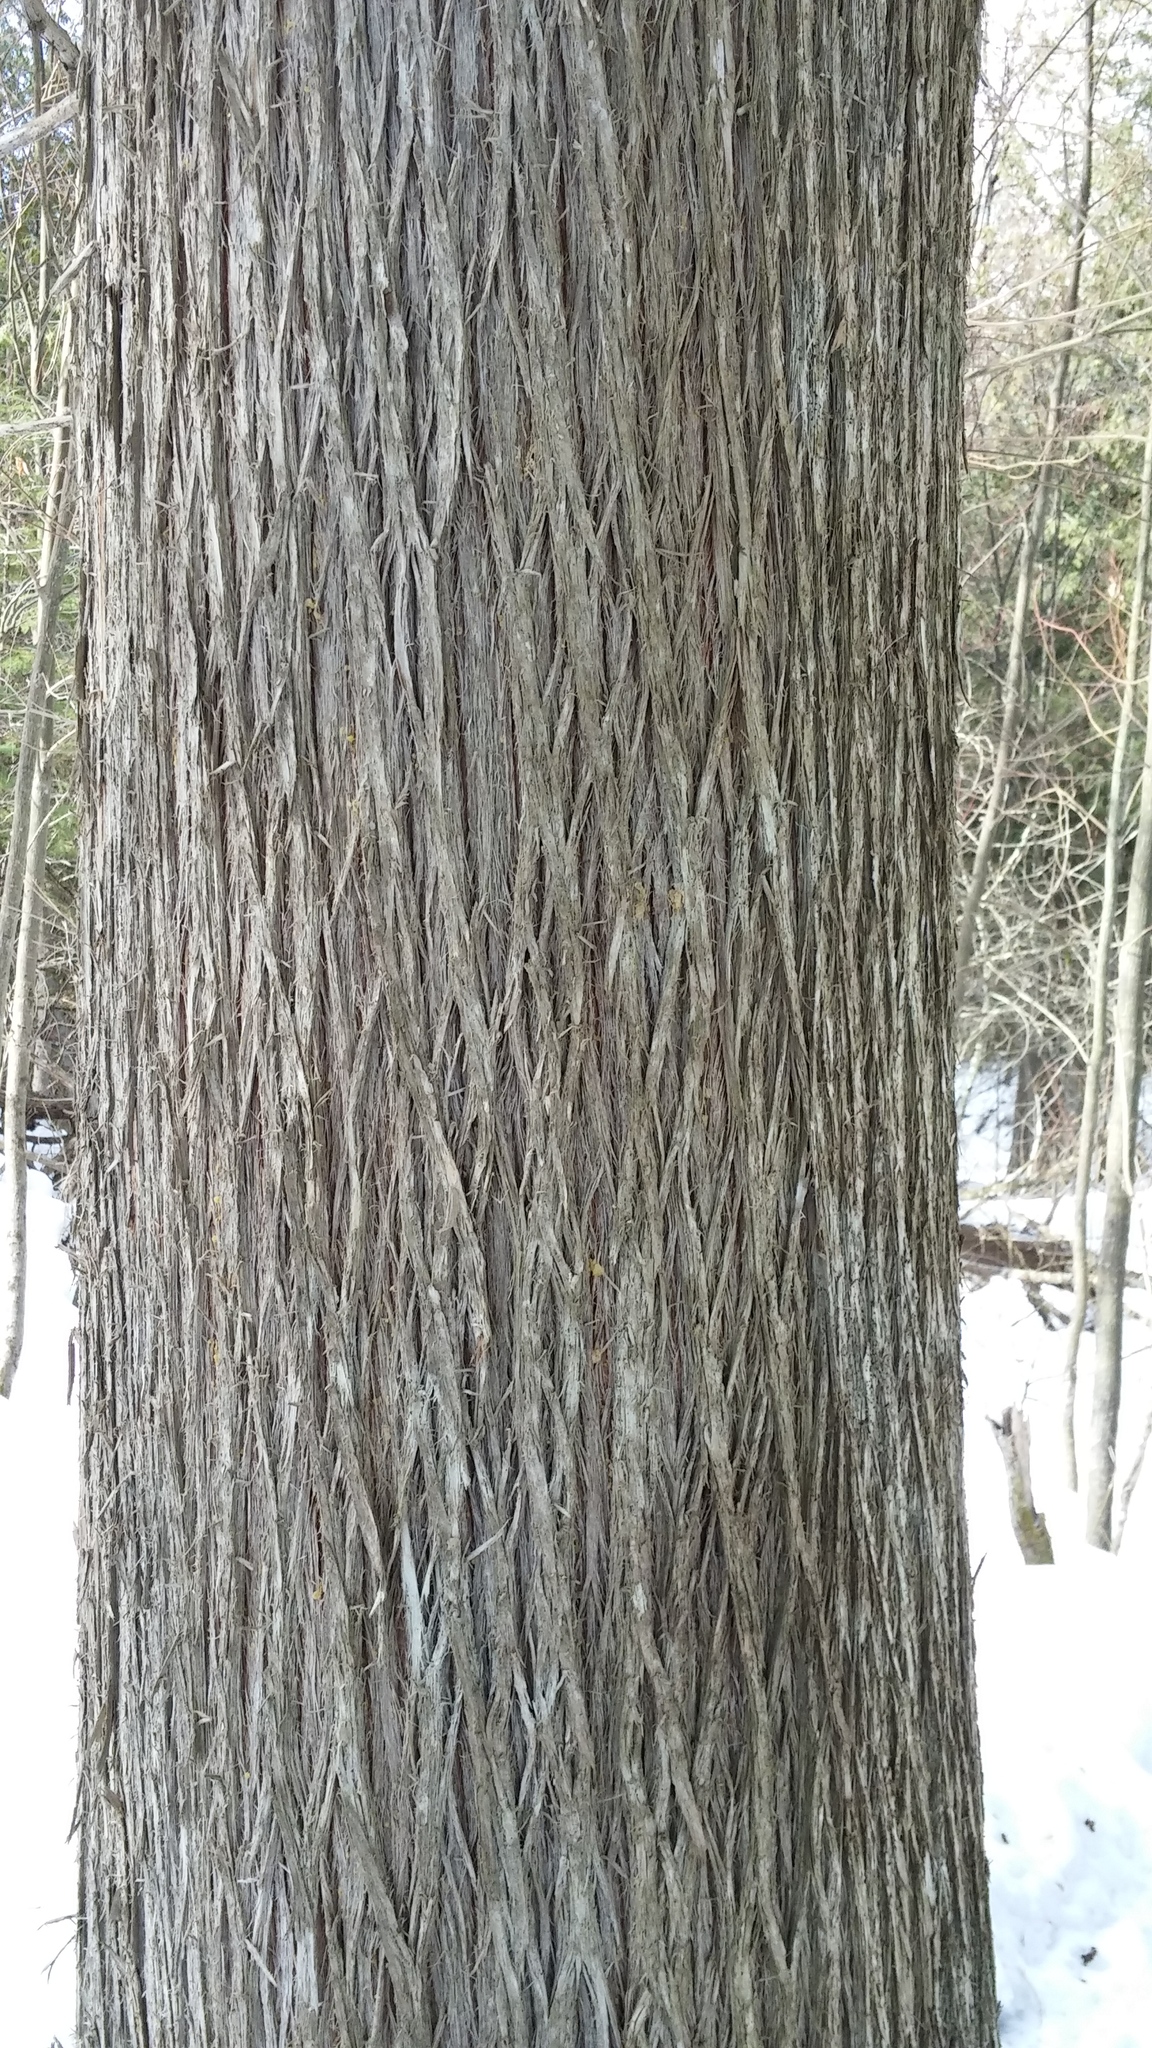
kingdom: Plantae
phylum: Tracheophyta
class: Pinopsida
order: Pinales
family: Cupressaceae
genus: Thuja
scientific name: Thuja occidentalis
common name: Northern white-cedar
